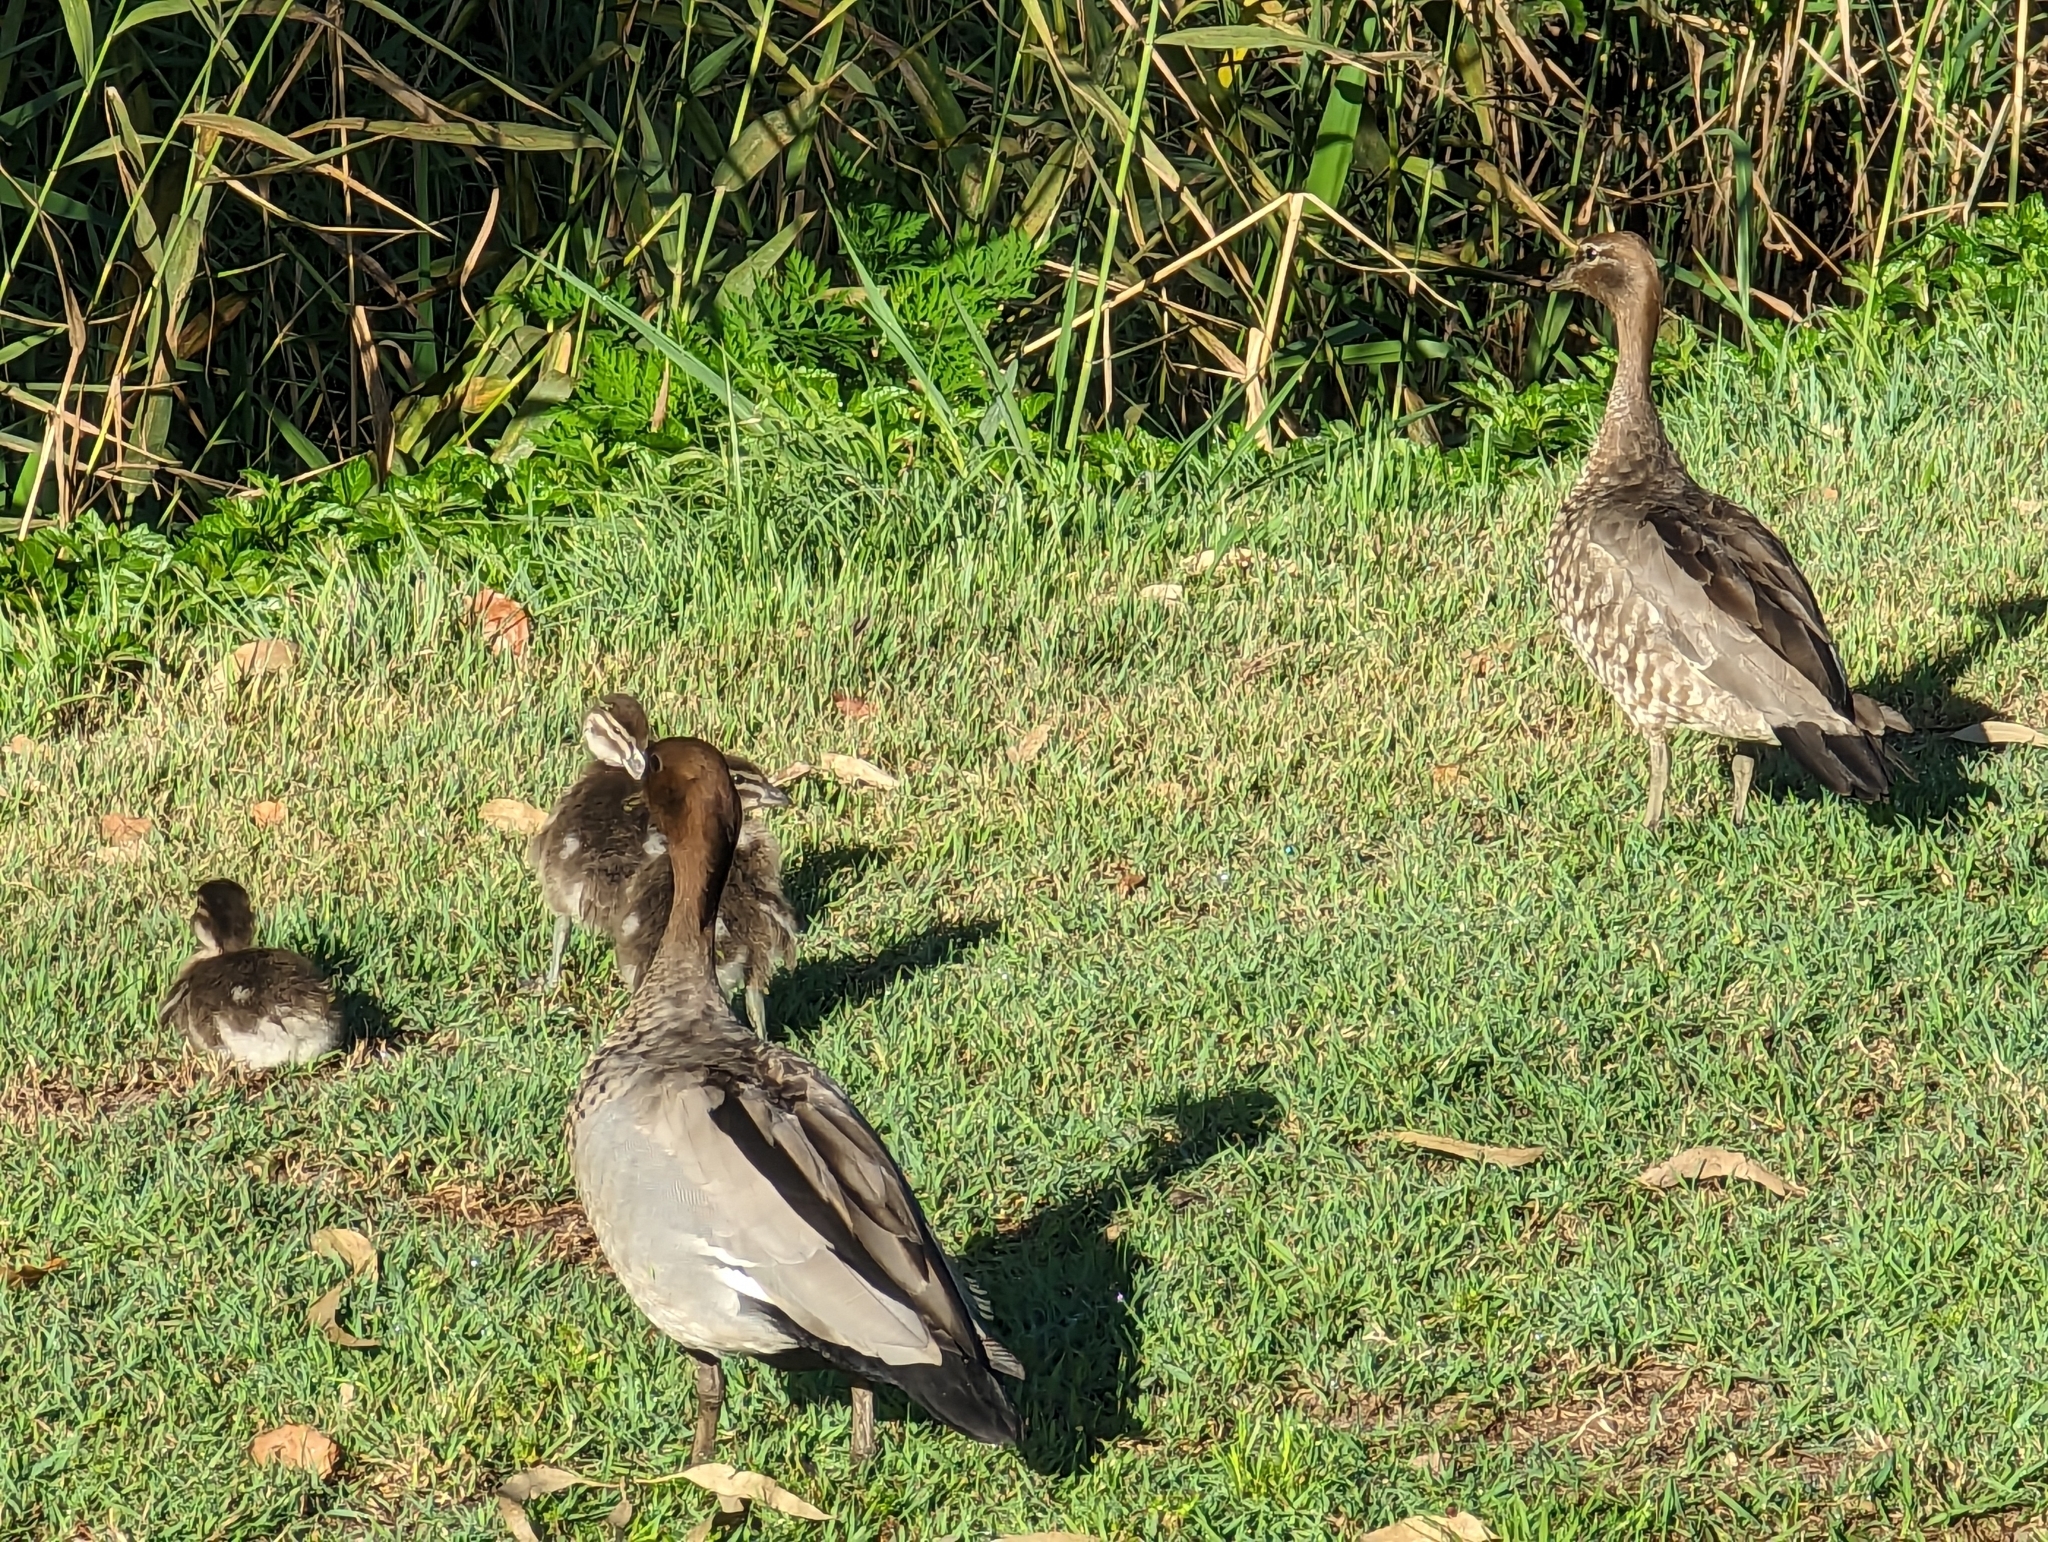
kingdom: Animalia
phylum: Chordata
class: Aves
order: Anseriformes
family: Anatidae
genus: Chenonetta
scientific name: Chenonetta jubata
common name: Maned duck
